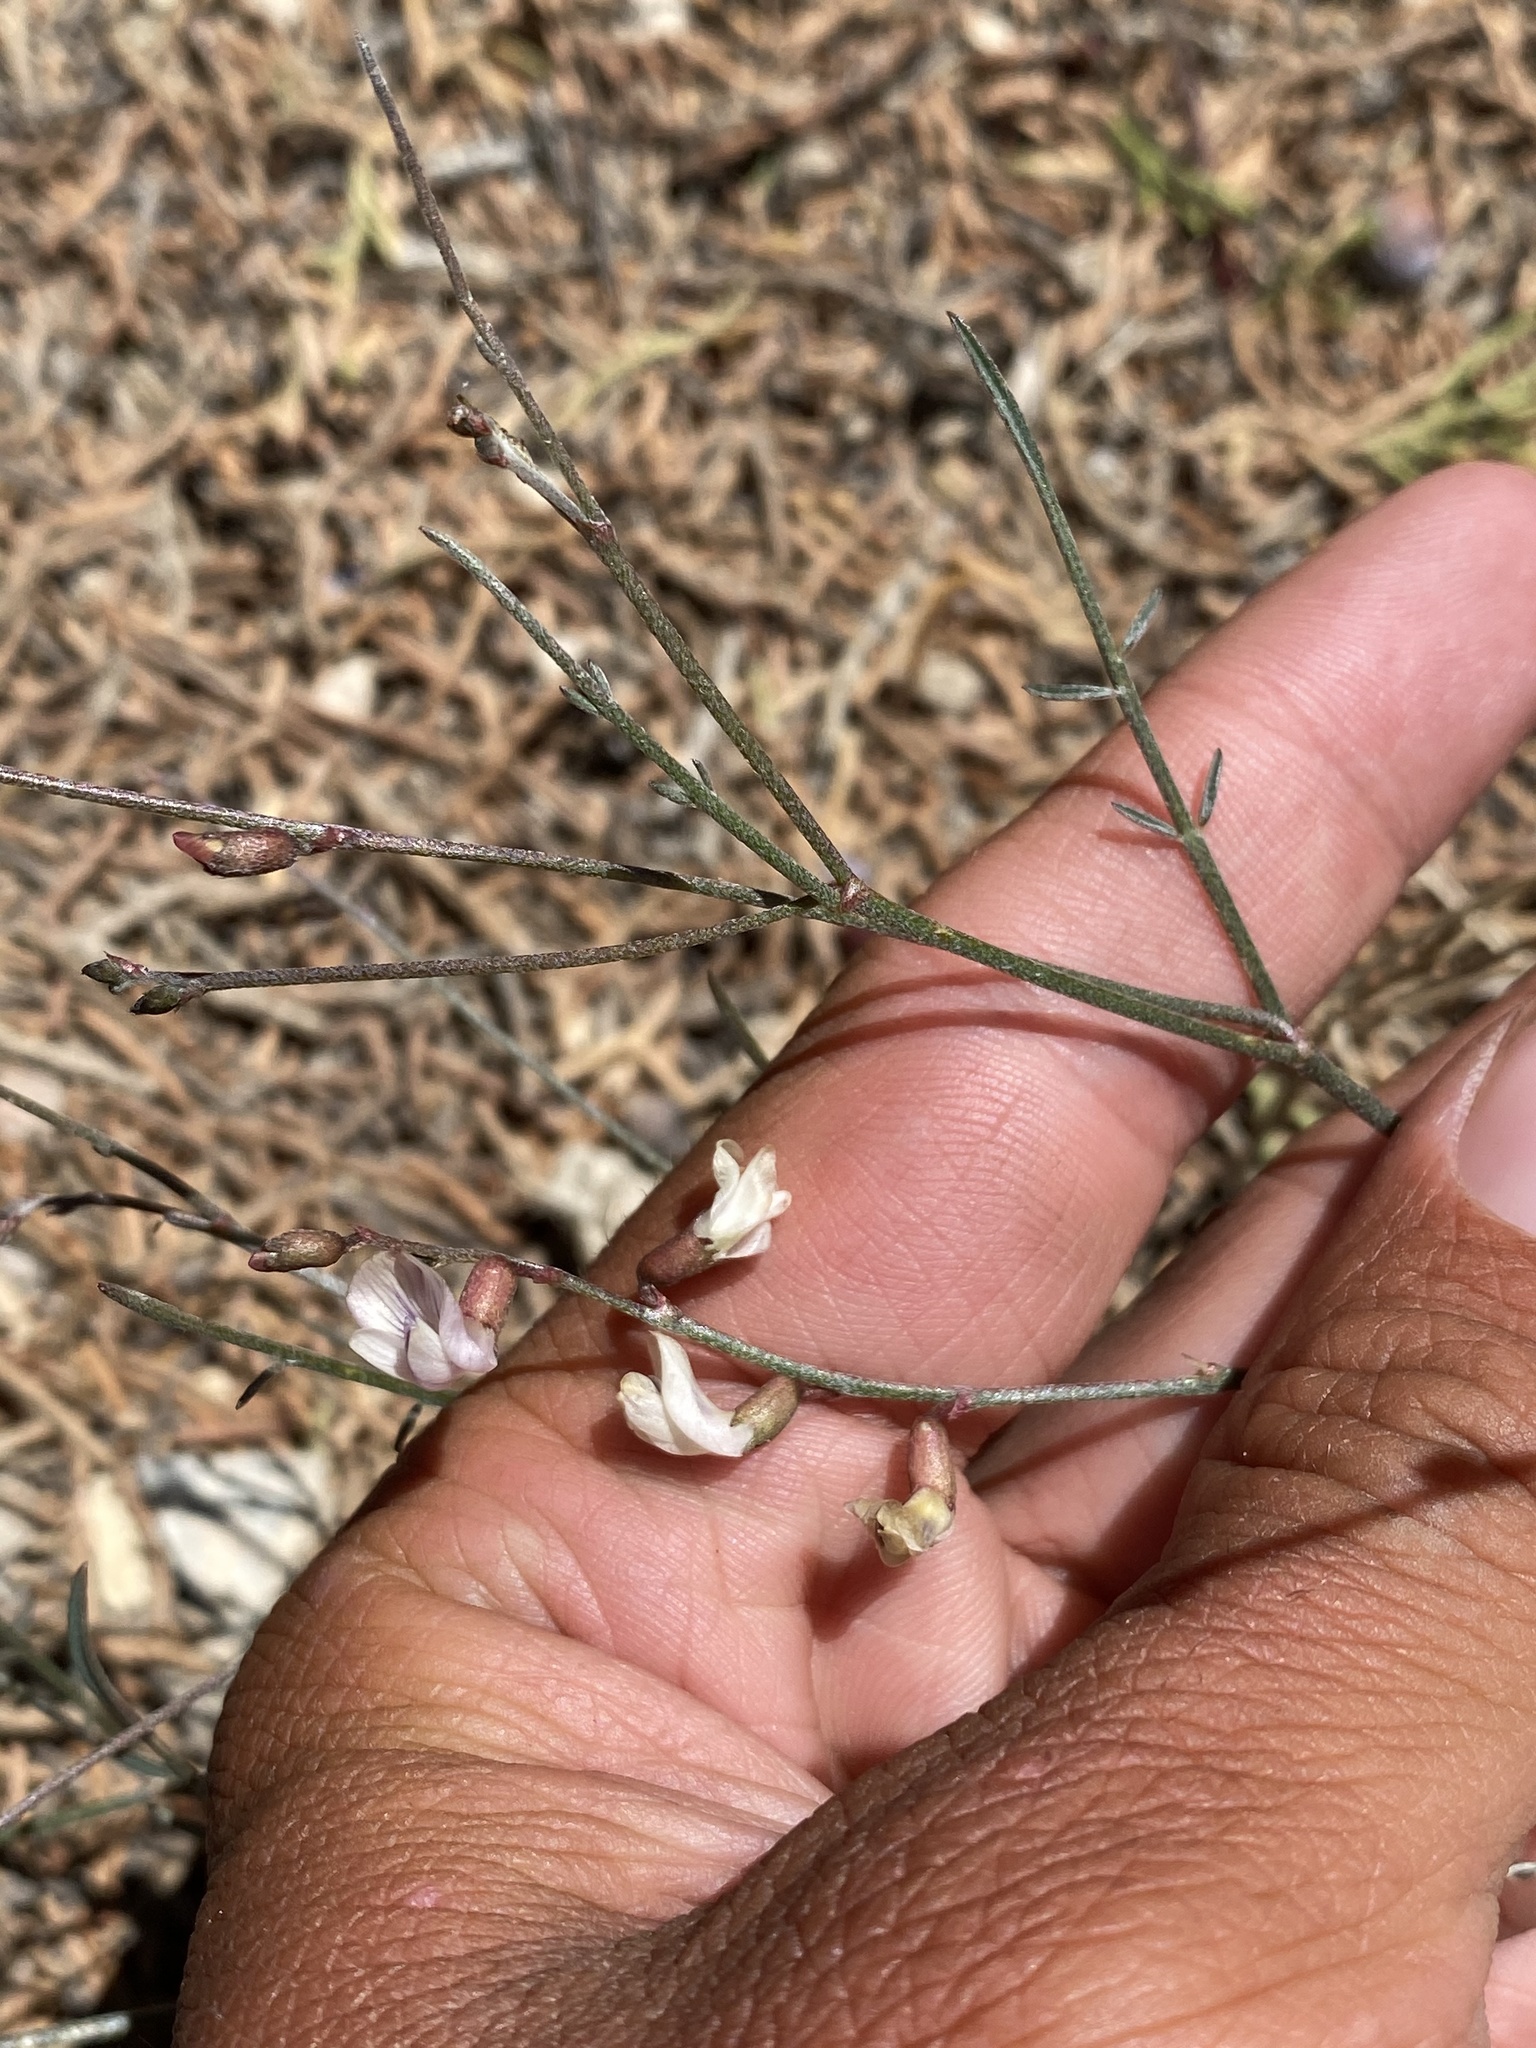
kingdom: Plantae
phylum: Tracheophyta
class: Magnoliopsida
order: Fabales
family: Fabaceae
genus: Astragalus
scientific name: Astragalus convallarius
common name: Lesser rushy milk-vetch
